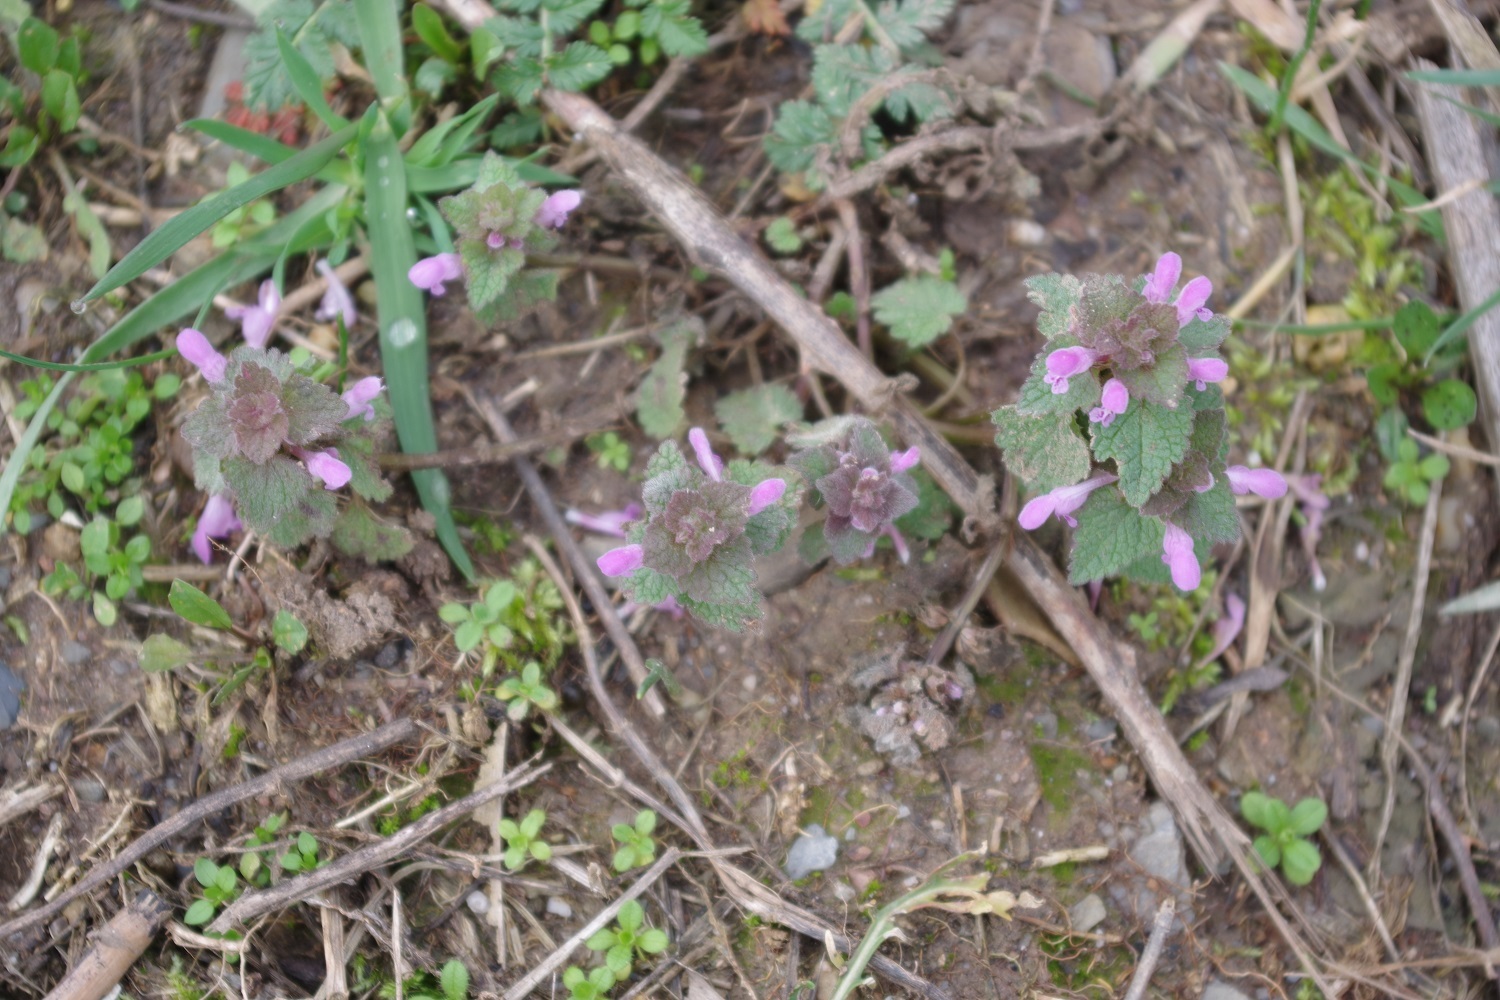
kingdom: Plantae
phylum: Tracheophyta
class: Magnoliopsida
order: Lamiales
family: Lamiaceae
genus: Lamium
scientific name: Lamium purpureum
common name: Red dead-nettle
